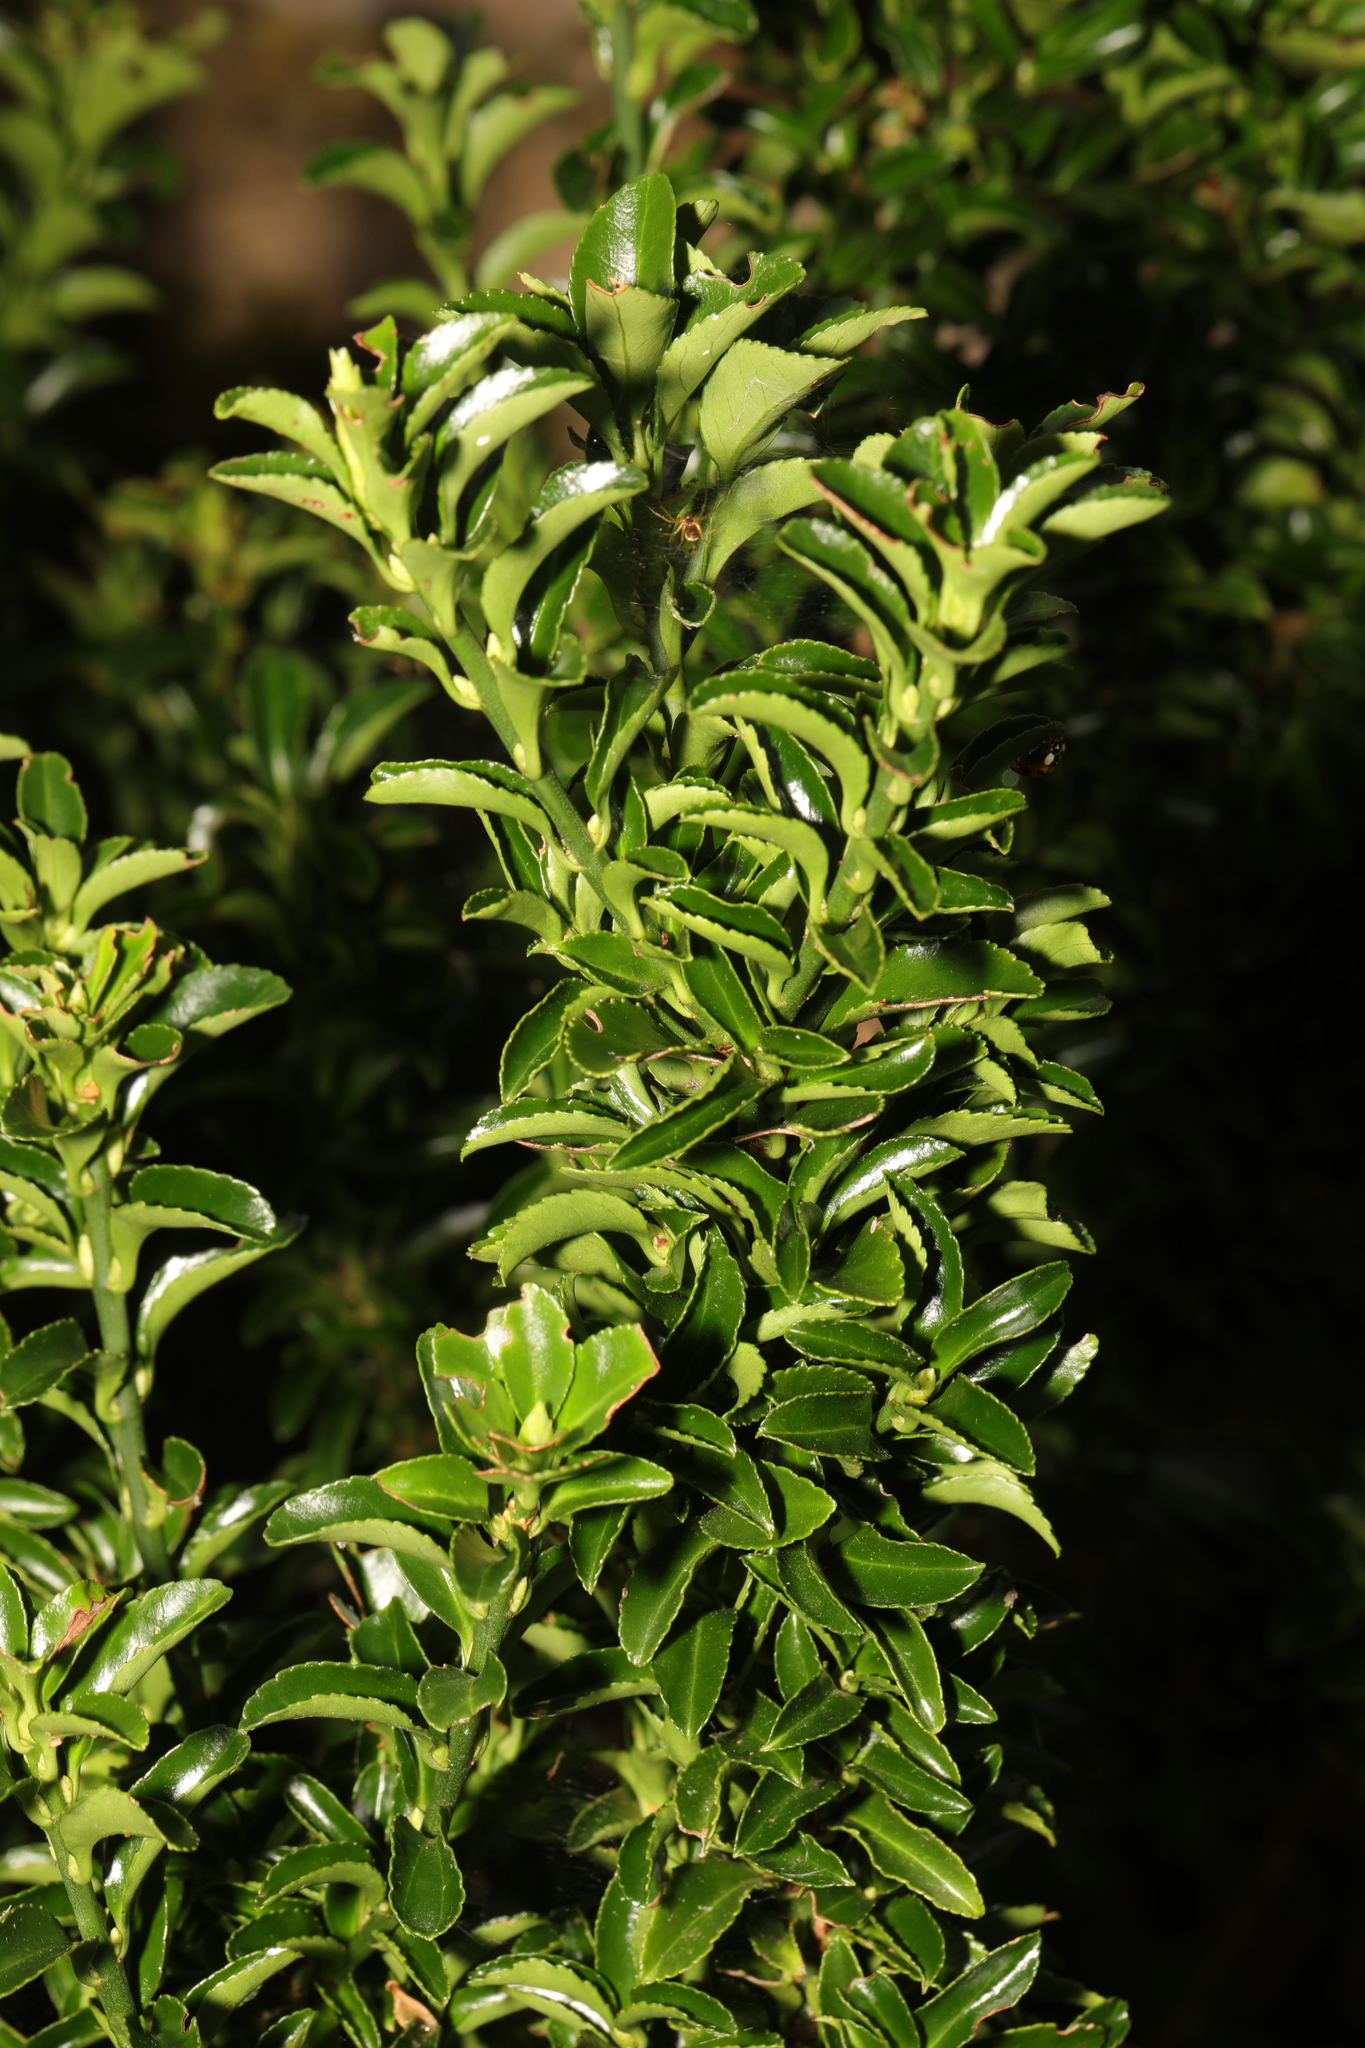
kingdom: Plantae
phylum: Tracheophyta
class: Magnoliopsida
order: Celastrales
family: Celastraceae
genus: Euonymus
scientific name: Euonymus japonicus
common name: Japanese spindletree
